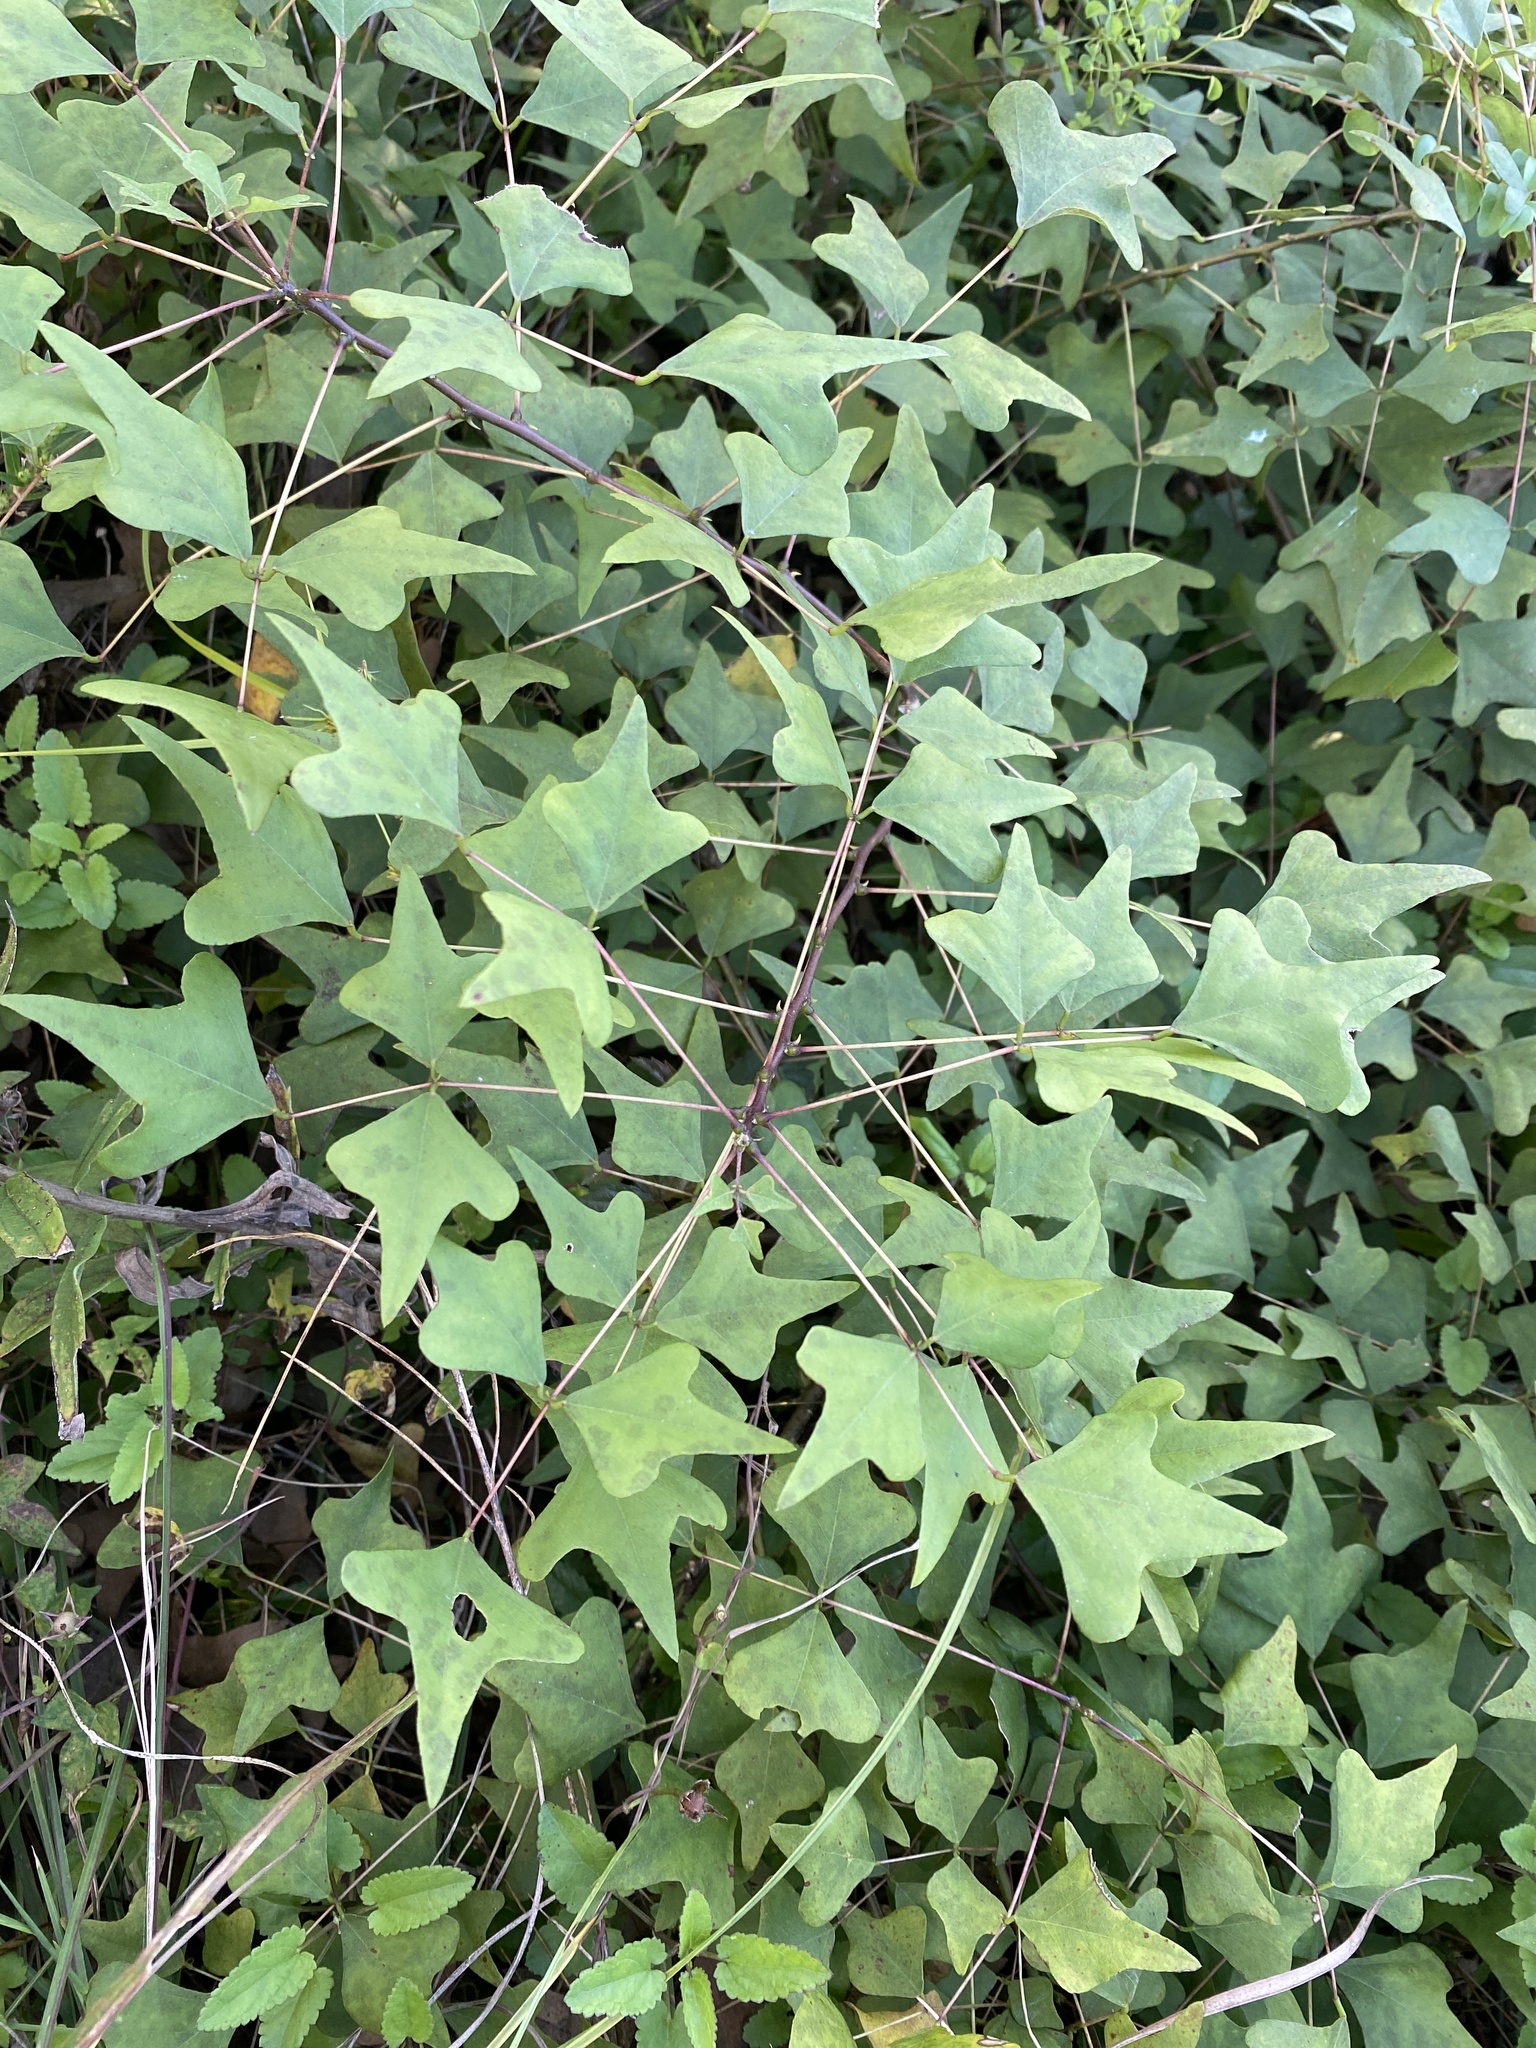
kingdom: Plantae
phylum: Tracheophyta
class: Magnoliopsida
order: Fabales
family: Fabaceae
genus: Erythrina
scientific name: Erythrina herbacea
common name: Coral-bean
